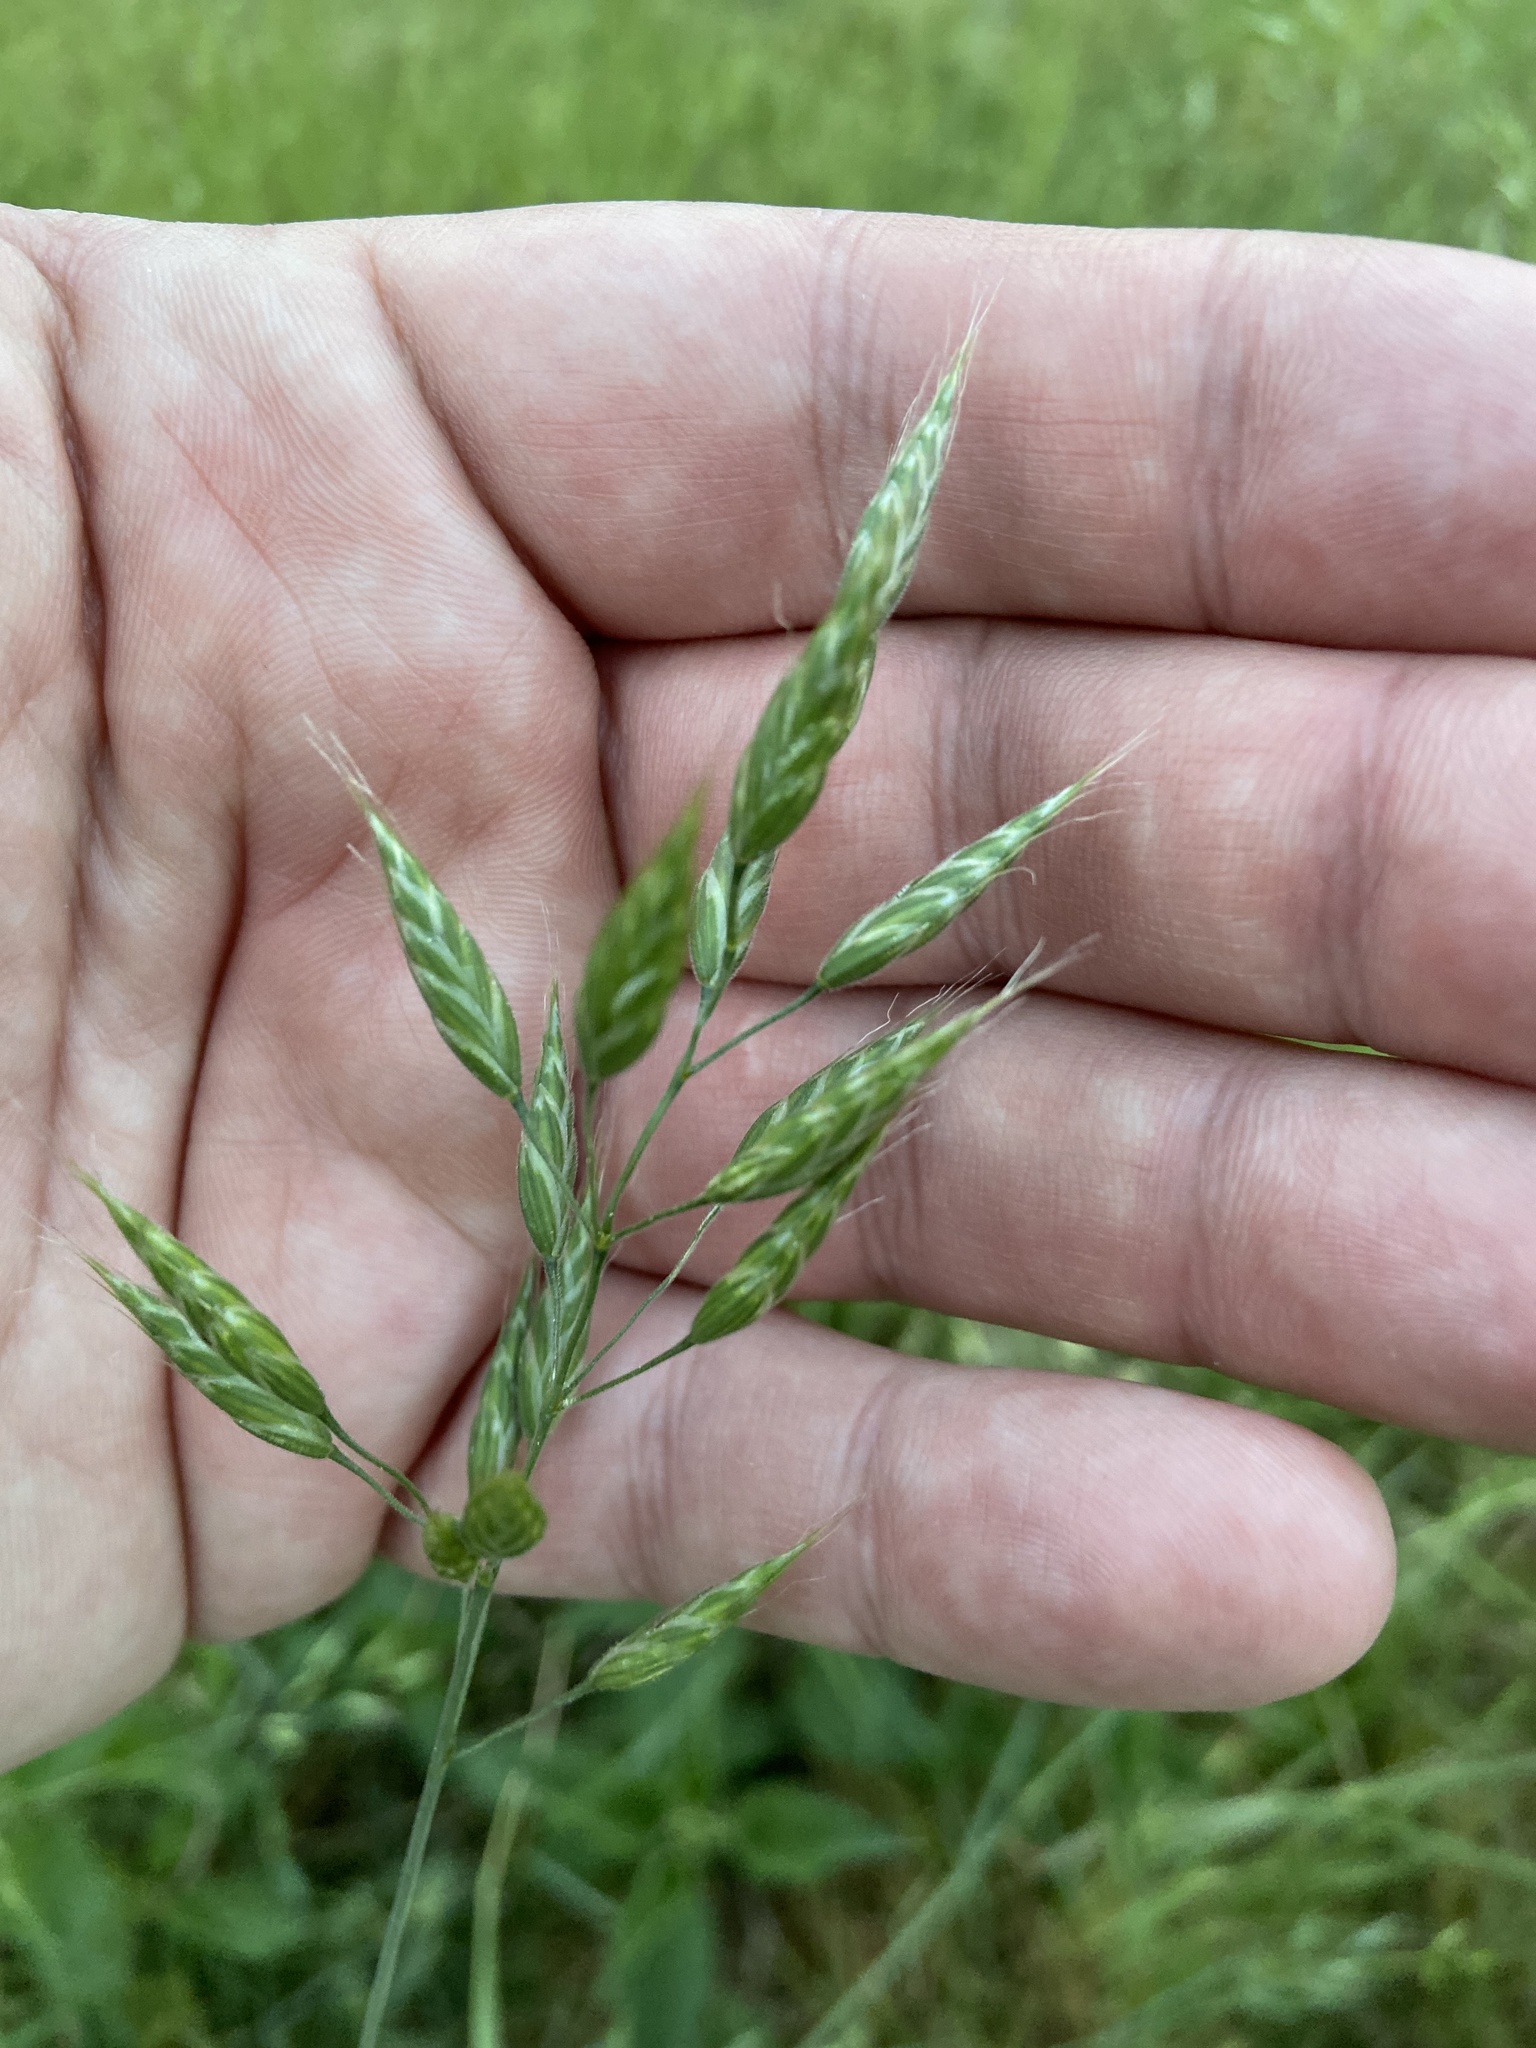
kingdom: Plantae
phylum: Tracheophyta
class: Liliopsida
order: Poales
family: Poaceae
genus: Bromus
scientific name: Bromus hordeaceus
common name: Soft brome
